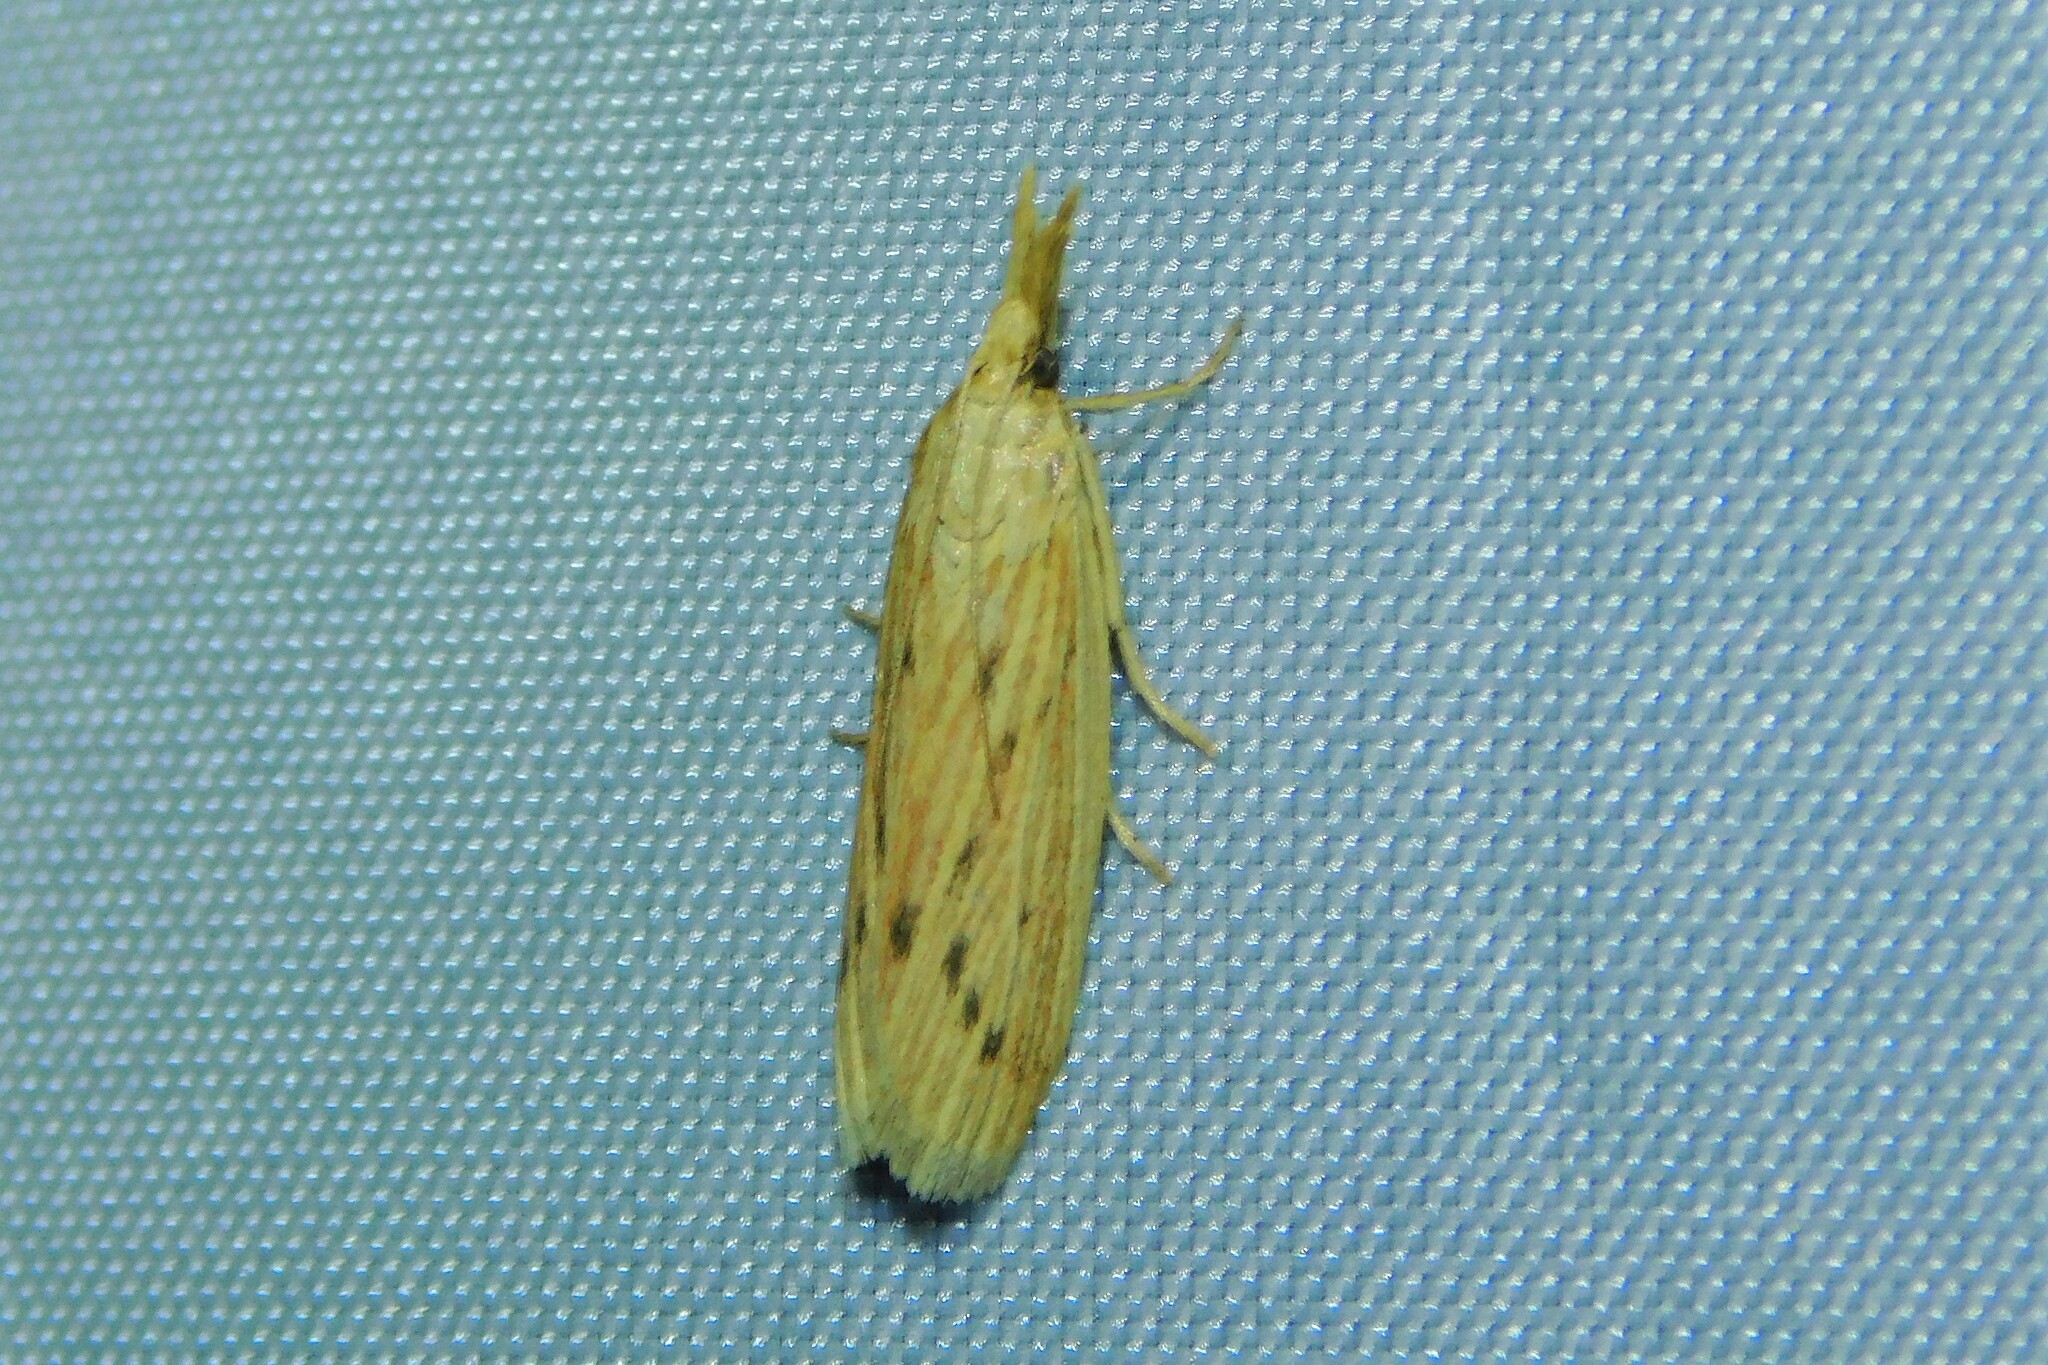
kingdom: Animalia
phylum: Arthropoda
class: Insecta
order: Lepidoptera
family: Pyralidae
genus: Ematheudes
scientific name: Ematheudes punctellus
